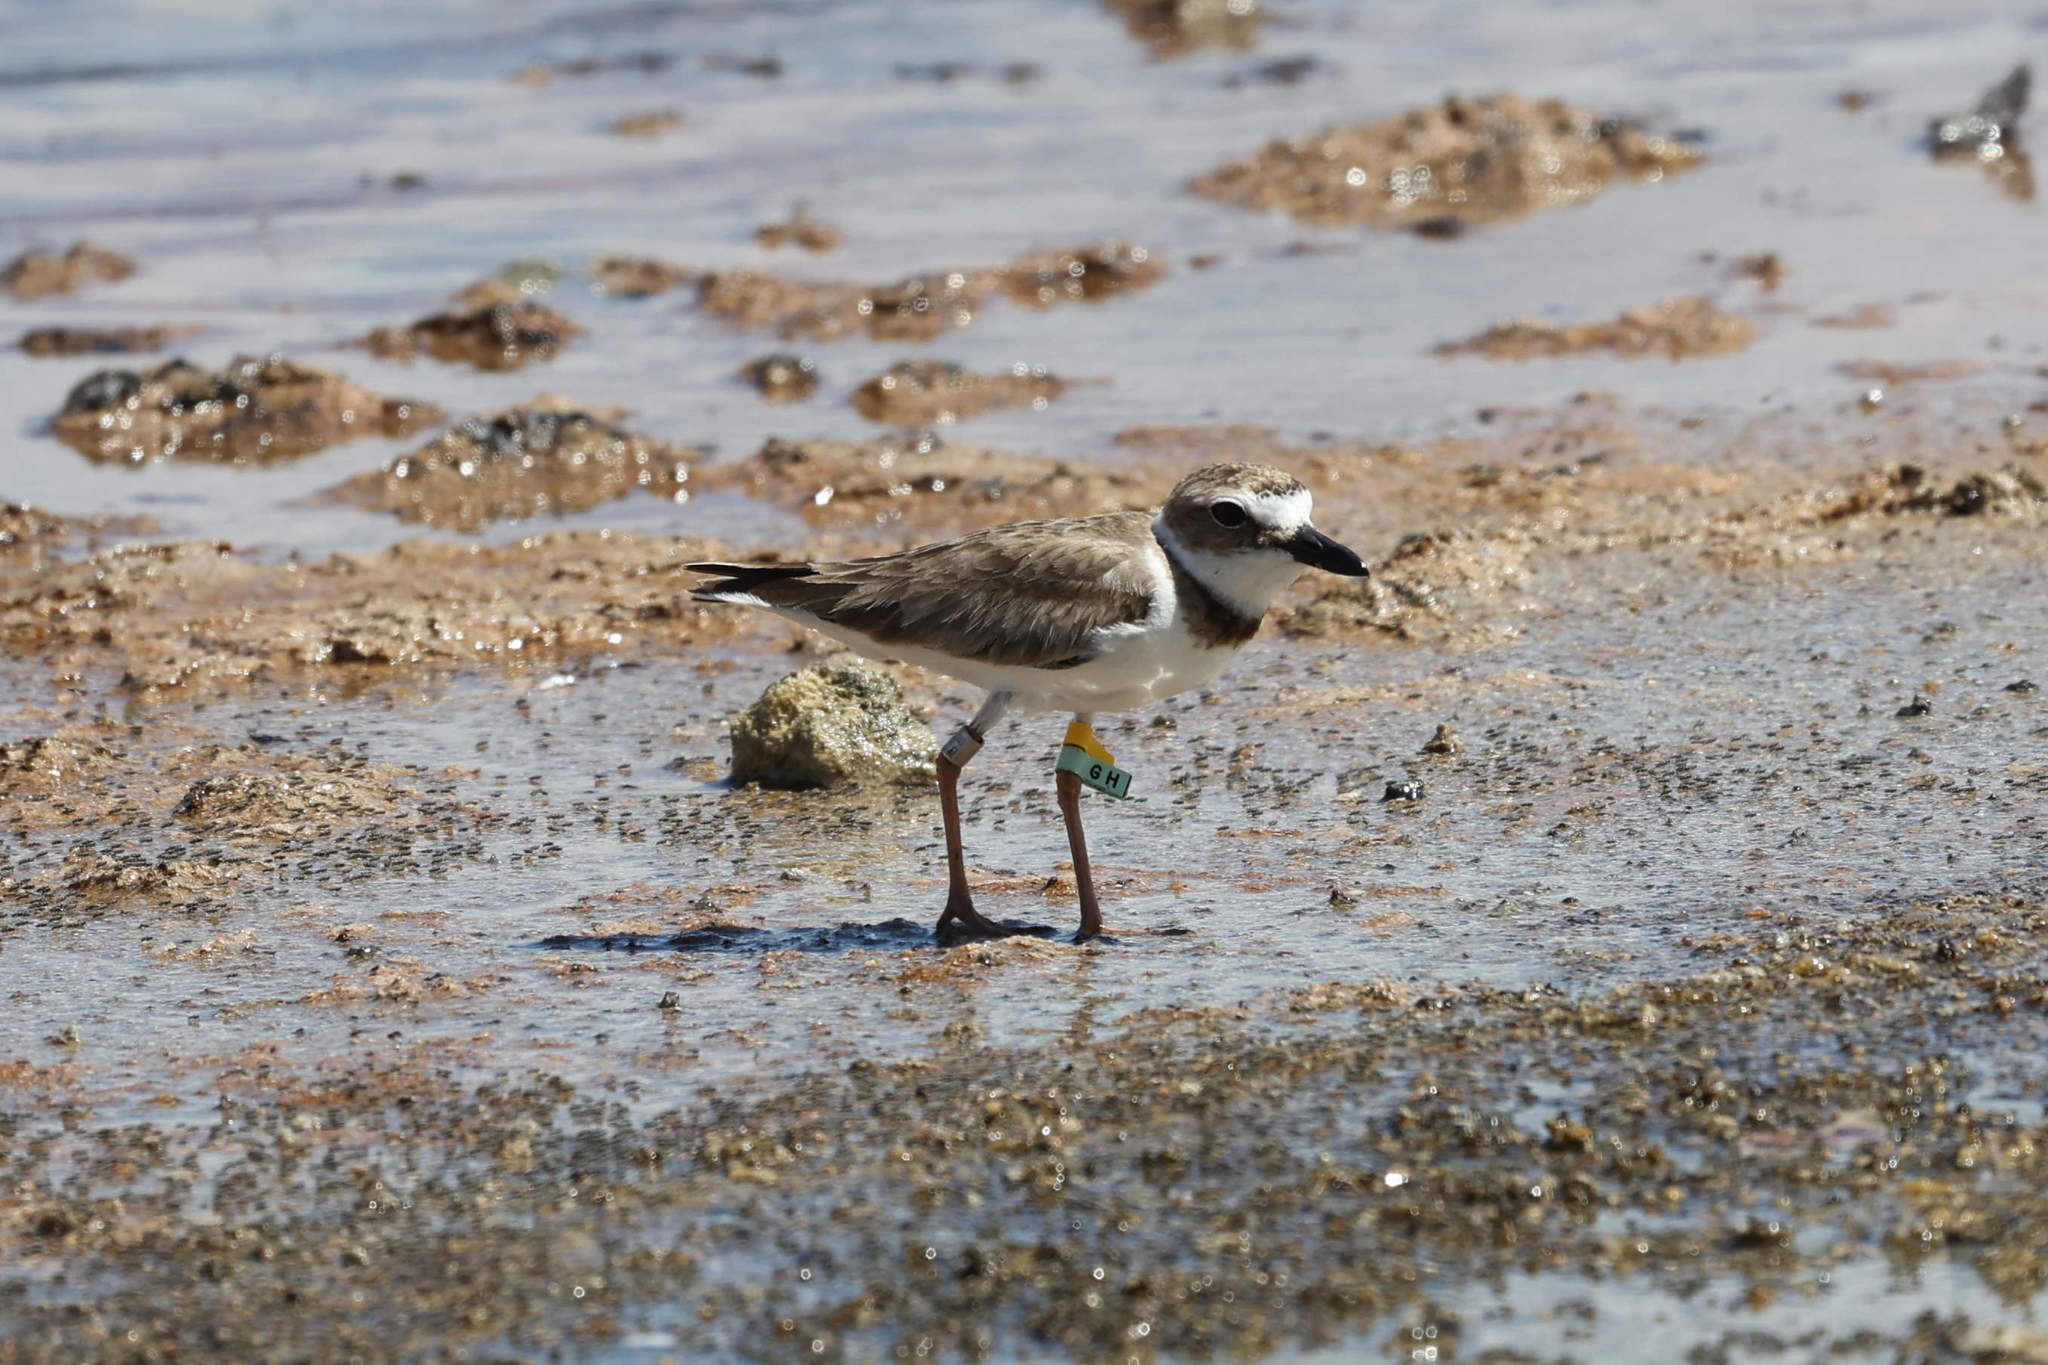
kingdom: Animalia
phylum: Chordata
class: Aves
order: Charadriiformes
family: Charadriidae
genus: Anarhynchus
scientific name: Anarhynchus
